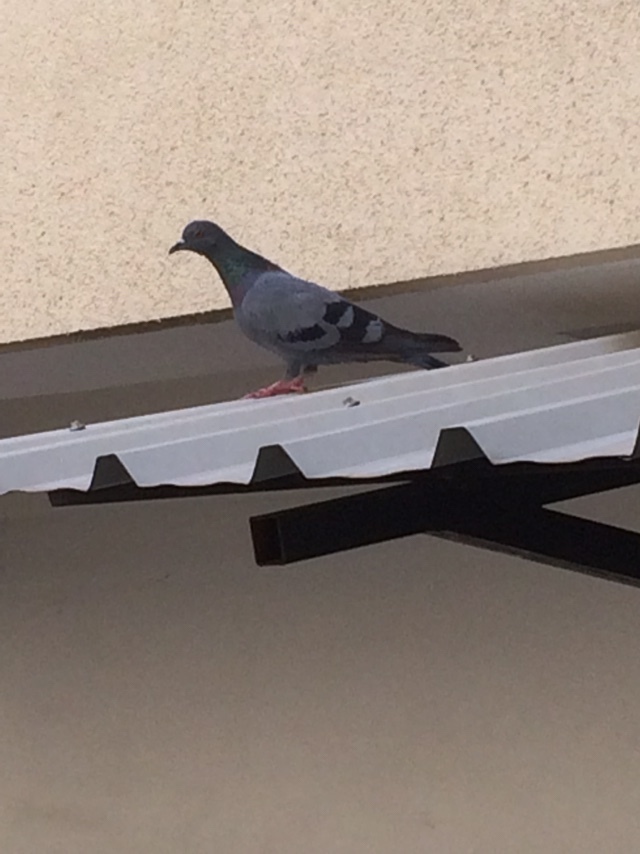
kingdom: Animalia
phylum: Chordata
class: Aves
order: Columbiformes
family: Columbidae
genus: Columba
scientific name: Columba livia
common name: Rock pigeon
